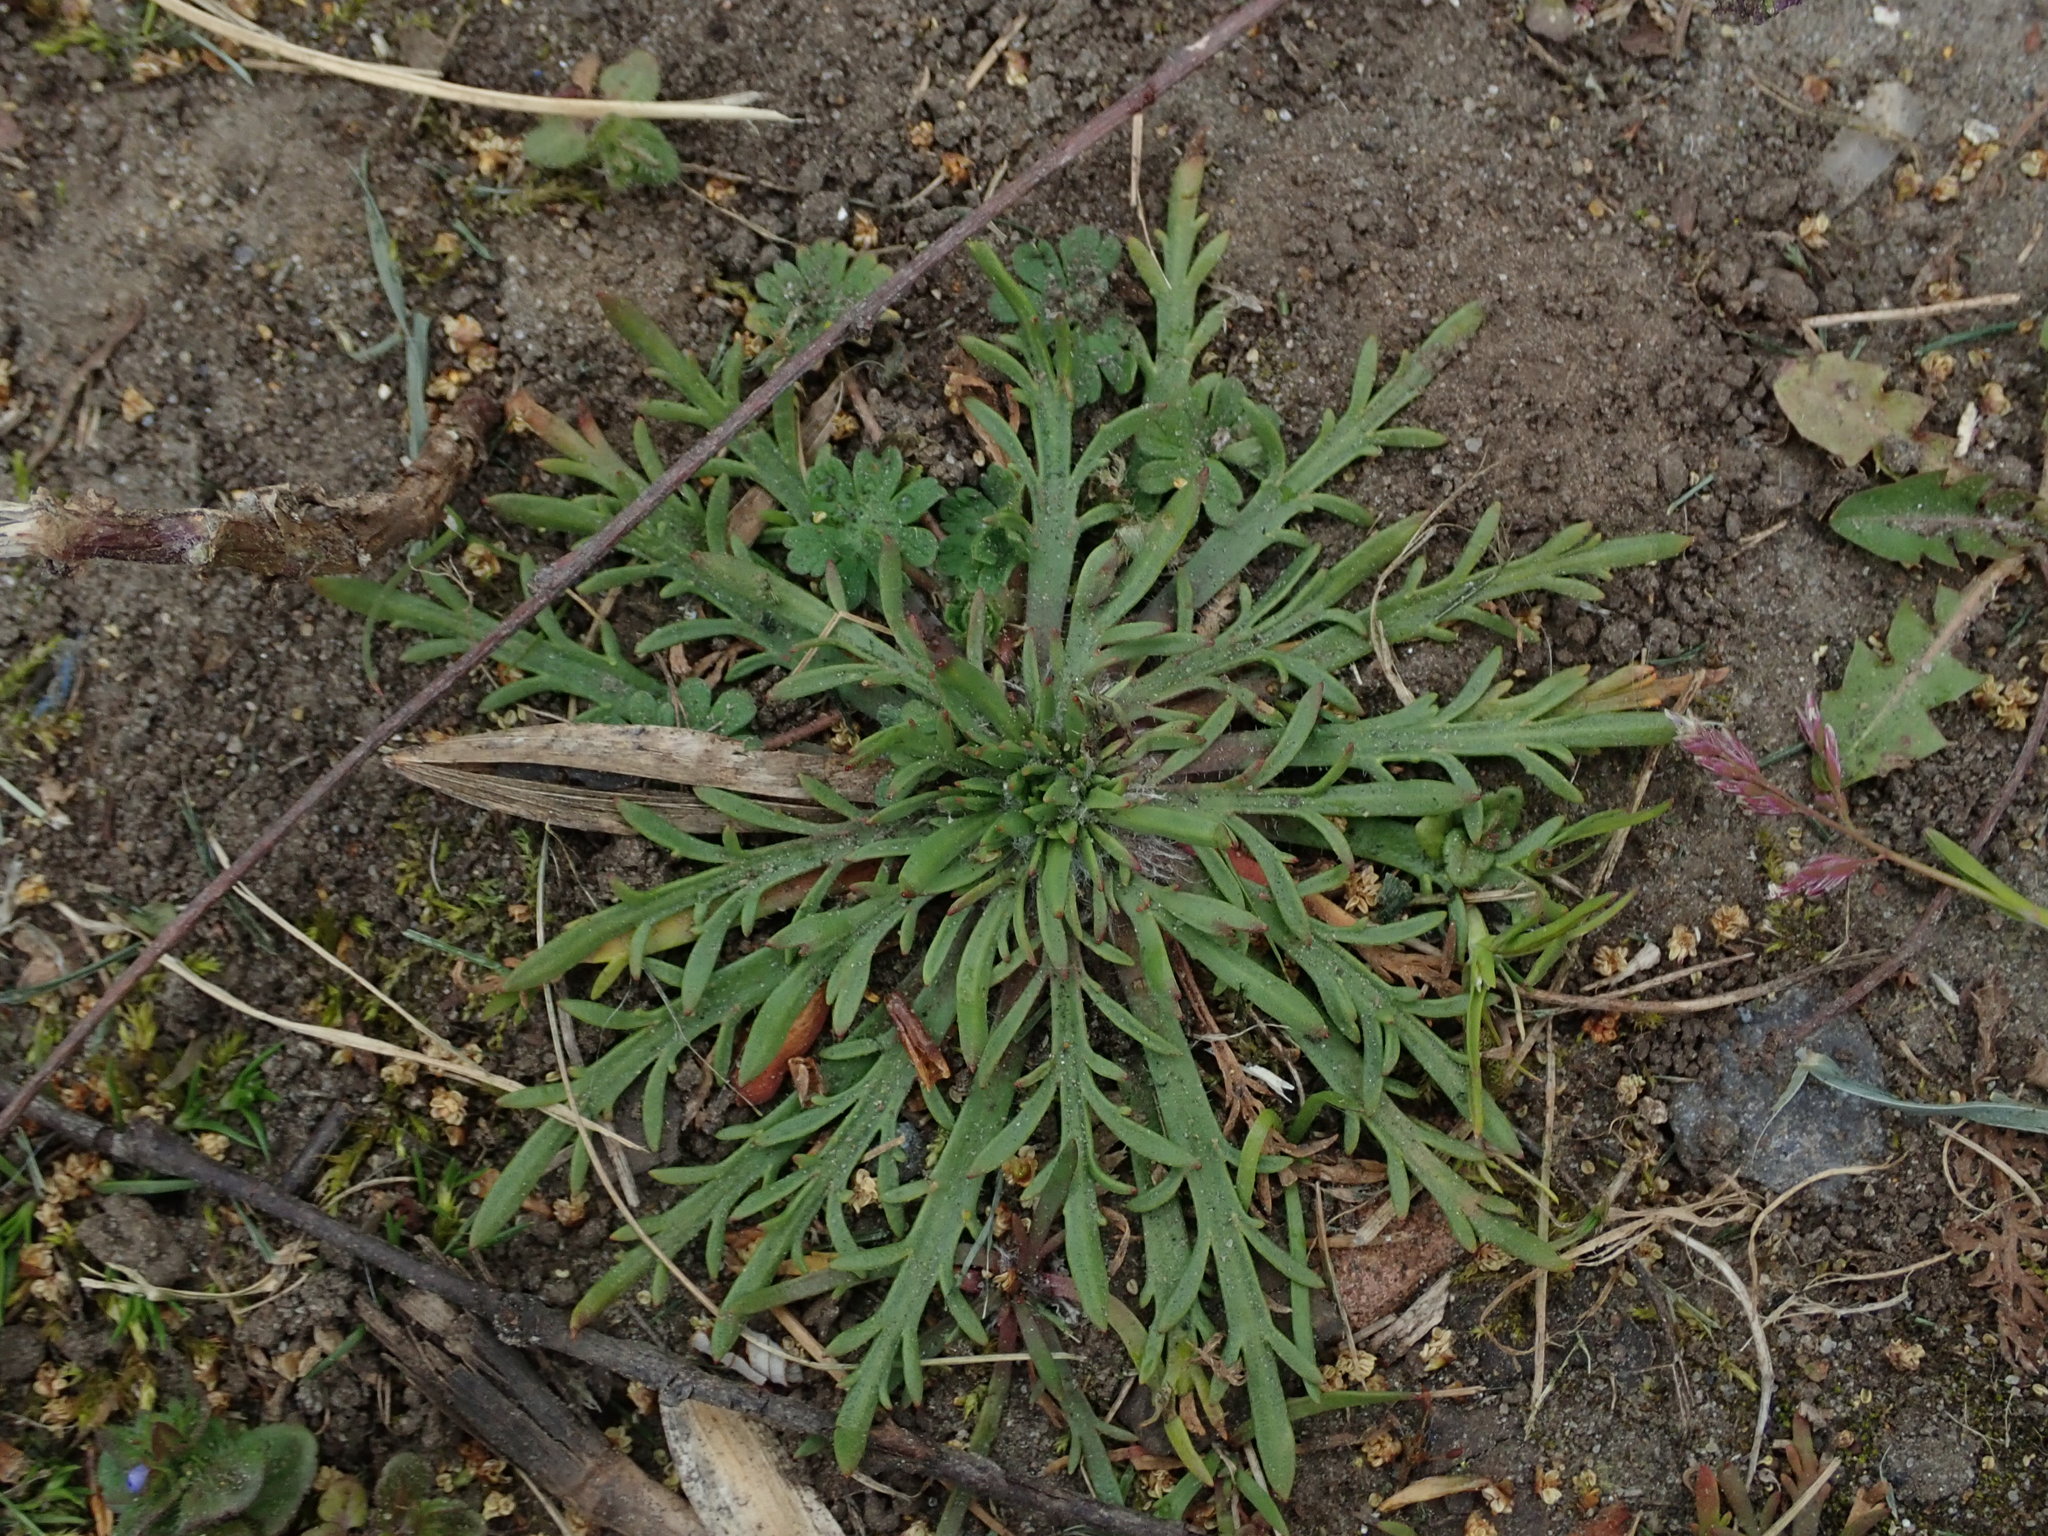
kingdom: Plantae
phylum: Tracheophyta
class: Magnoliopsida
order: Lamiales
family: Plantaginaceae
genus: Plantago
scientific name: Plantago coronopus
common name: Buck's-horn plantain
